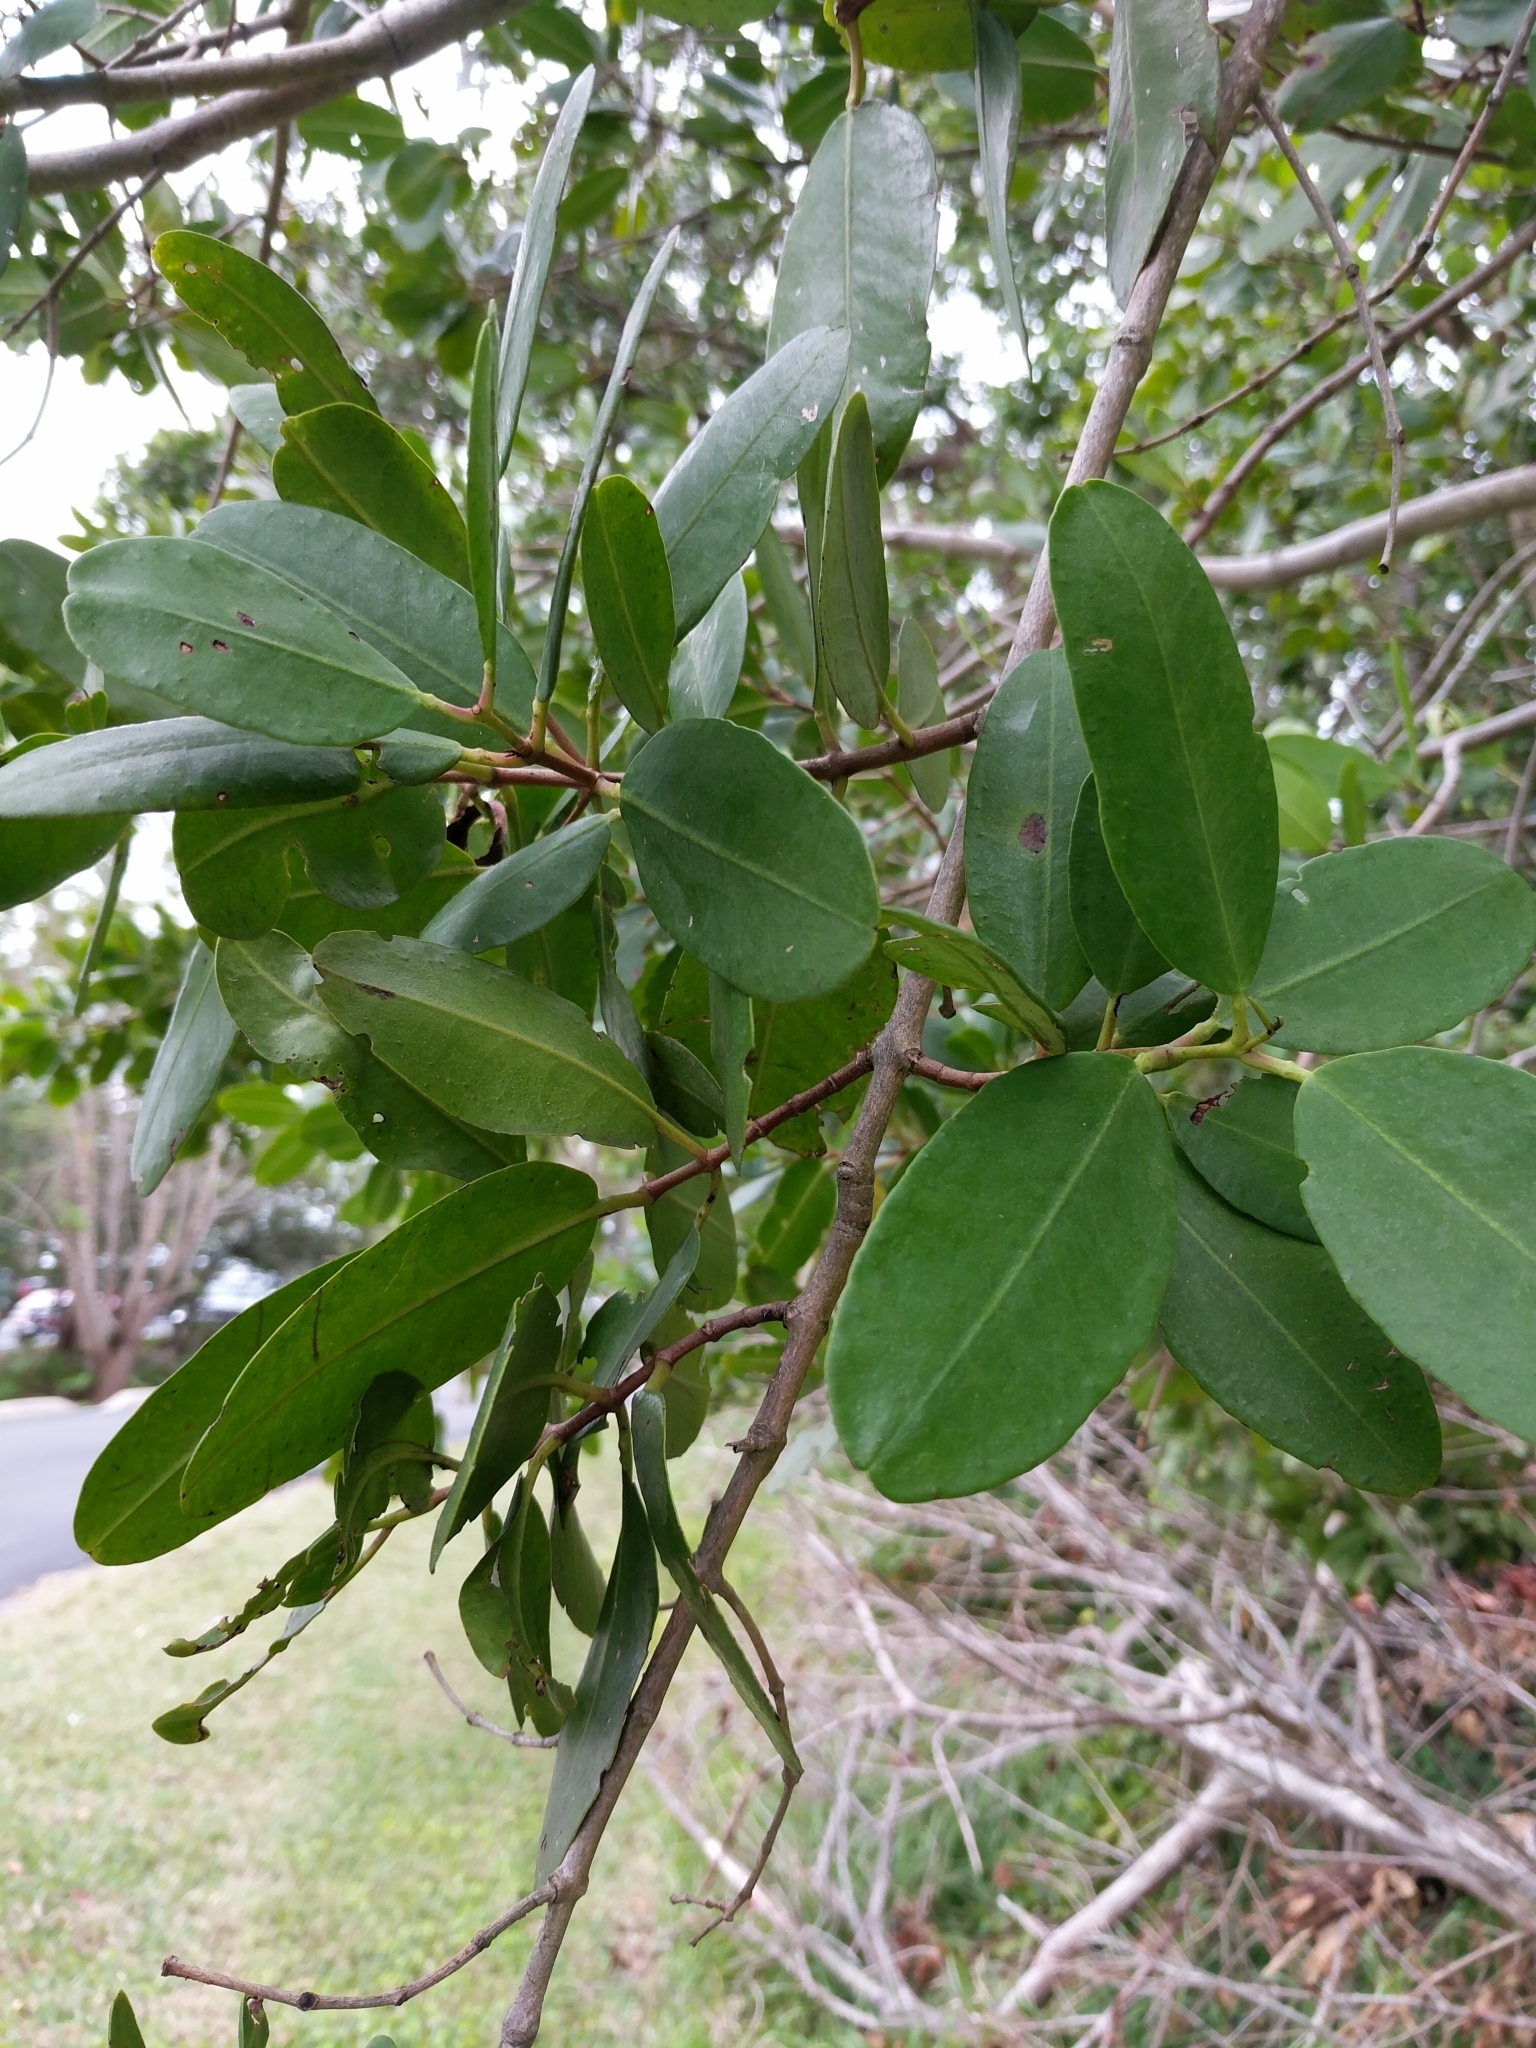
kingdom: Plantae
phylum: Tracheophyta
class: Magnoliopsida
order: Myrtales
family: Combretaceae
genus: Laguncularia
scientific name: Laguncularia racemosa
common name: White mangrove
